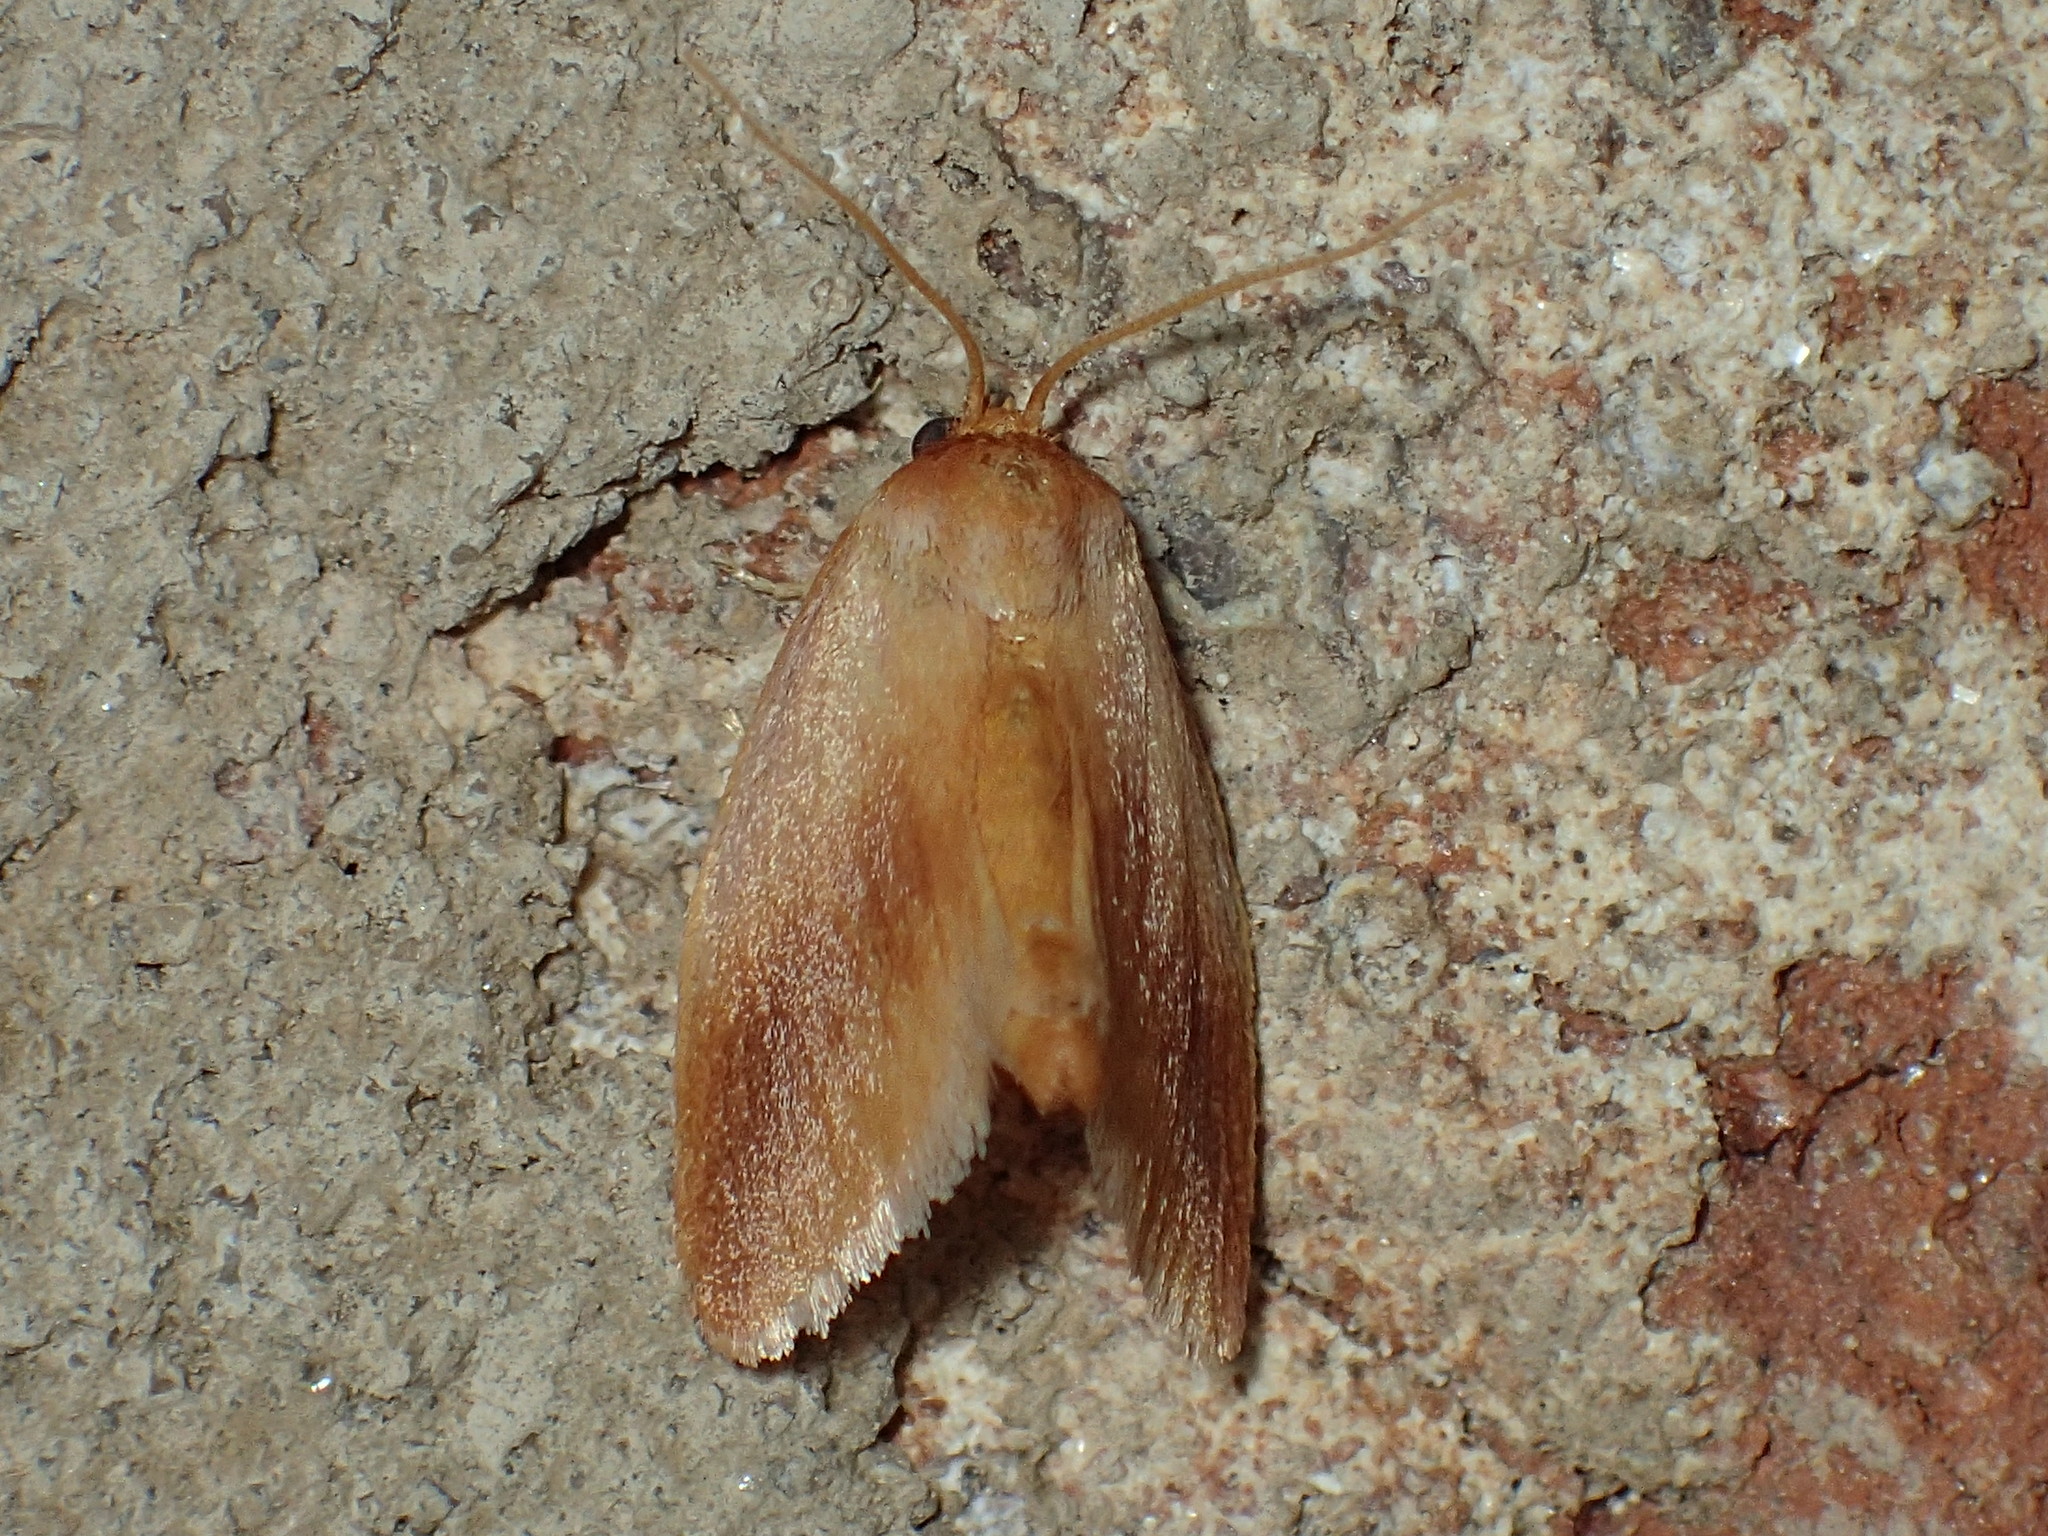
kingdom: Animalia
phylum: Arthropoda
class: Insecta
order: Lepidoptera
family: Limacodidae
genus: Tortricidia
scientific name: Tortricidia testacea
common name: Early button slug moth
